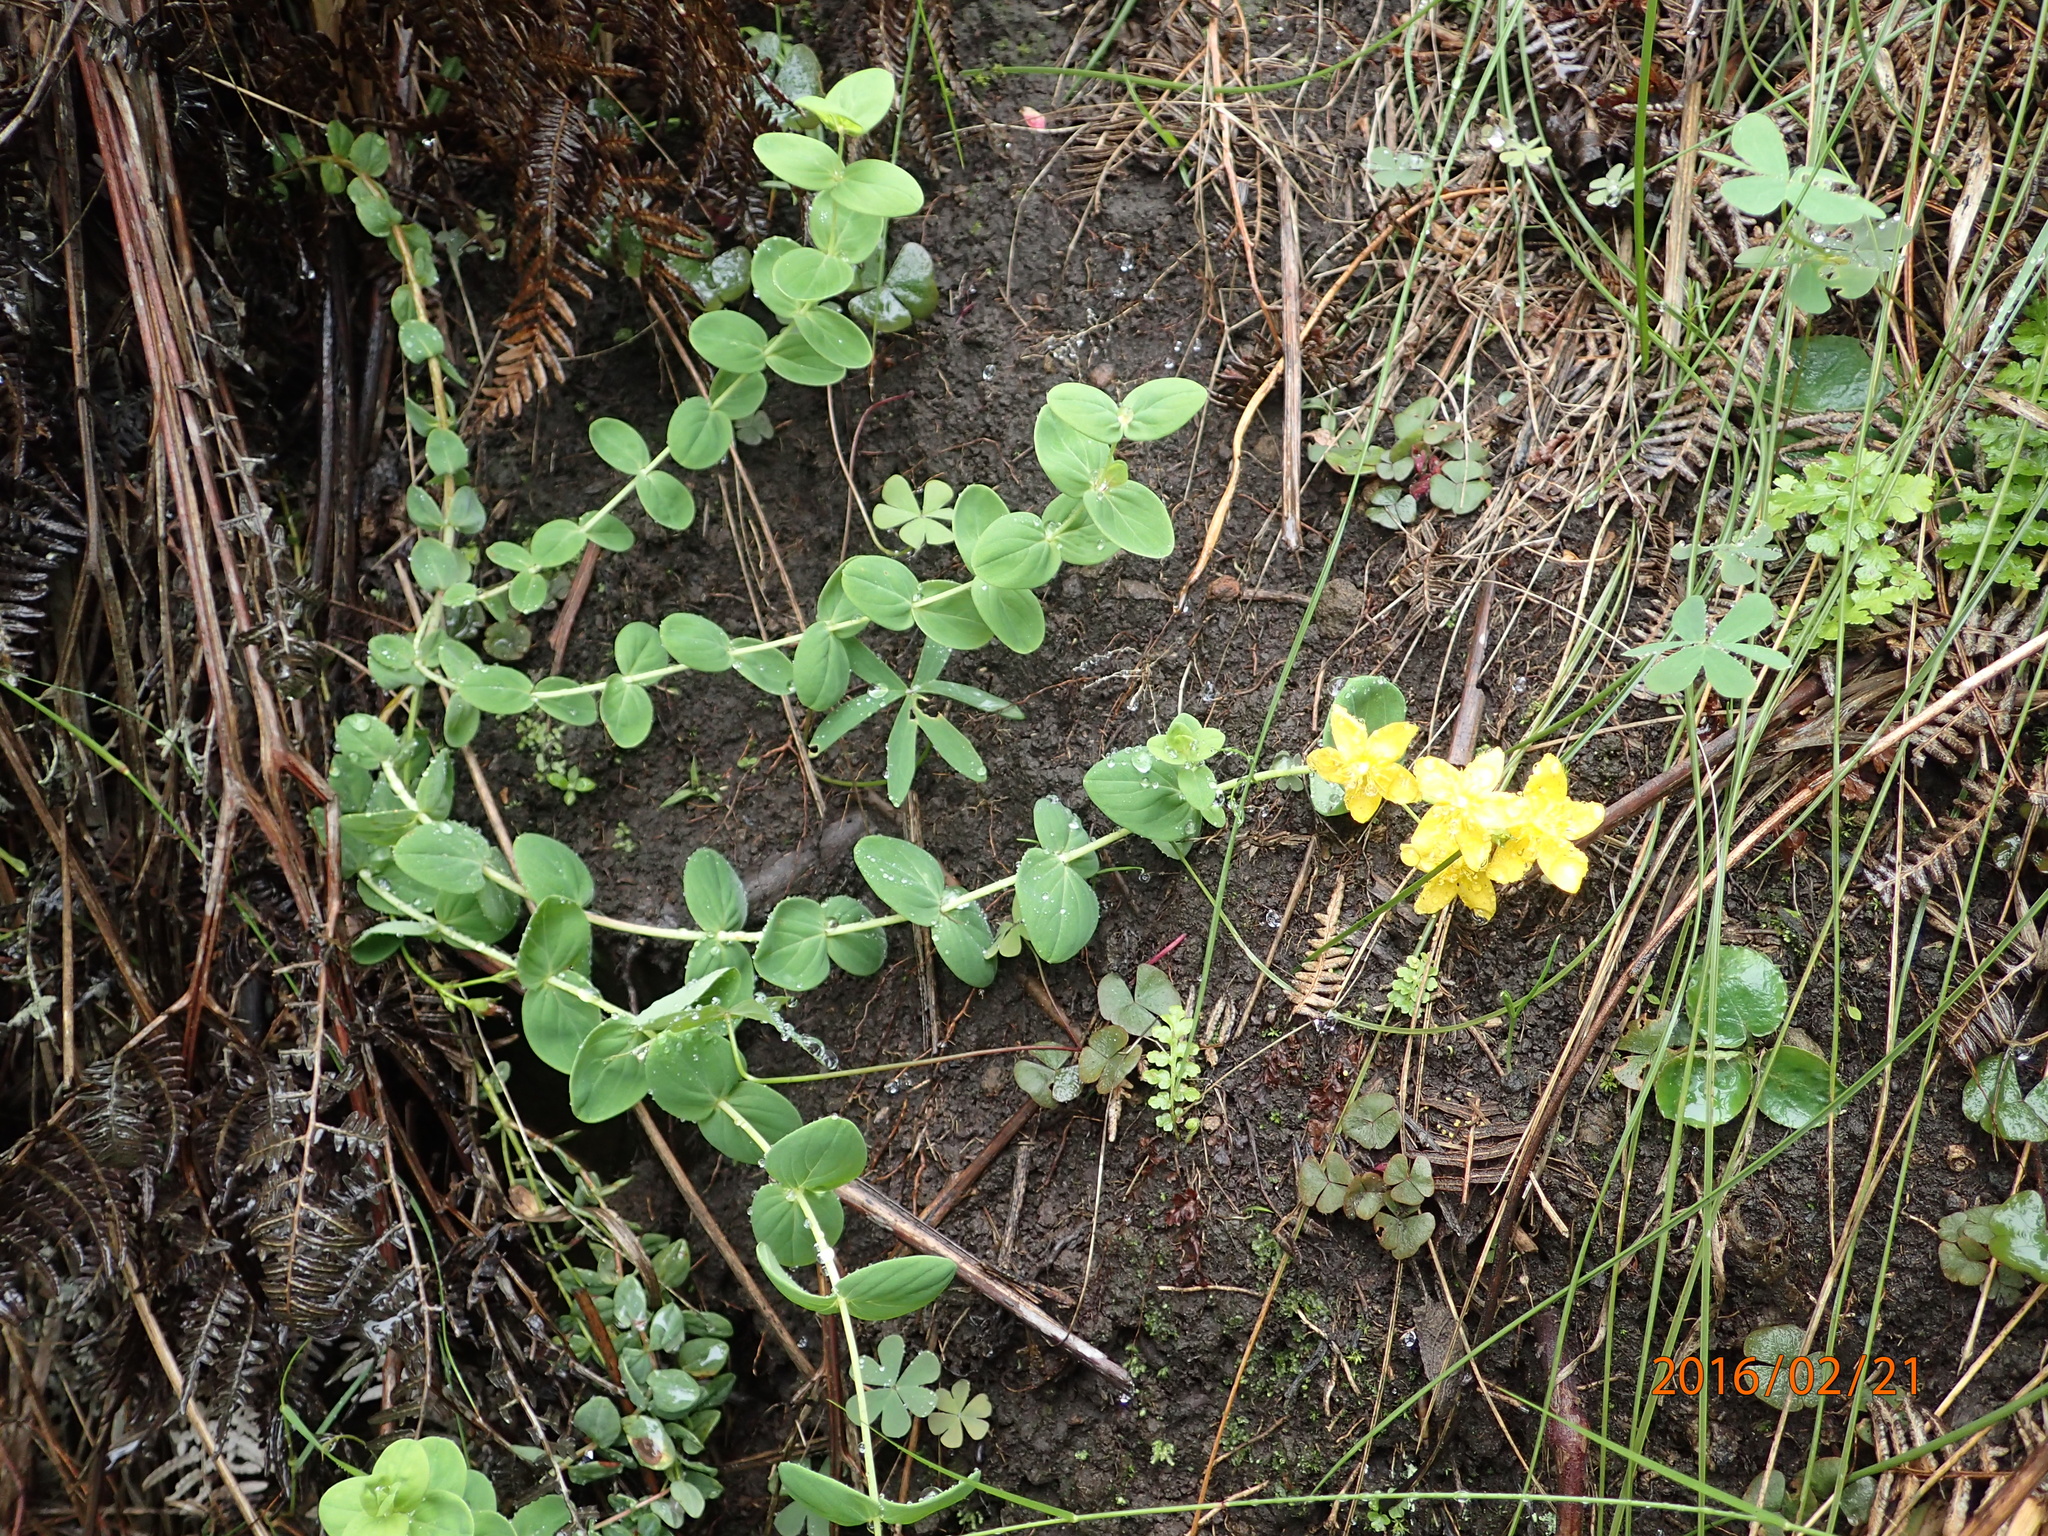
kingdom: Plantae
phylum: Tracheophyta
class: Magnoliopsida
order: Malpighiales
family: Hypericaceae
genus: Hypericum
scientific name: Hypericum aethiopicum
